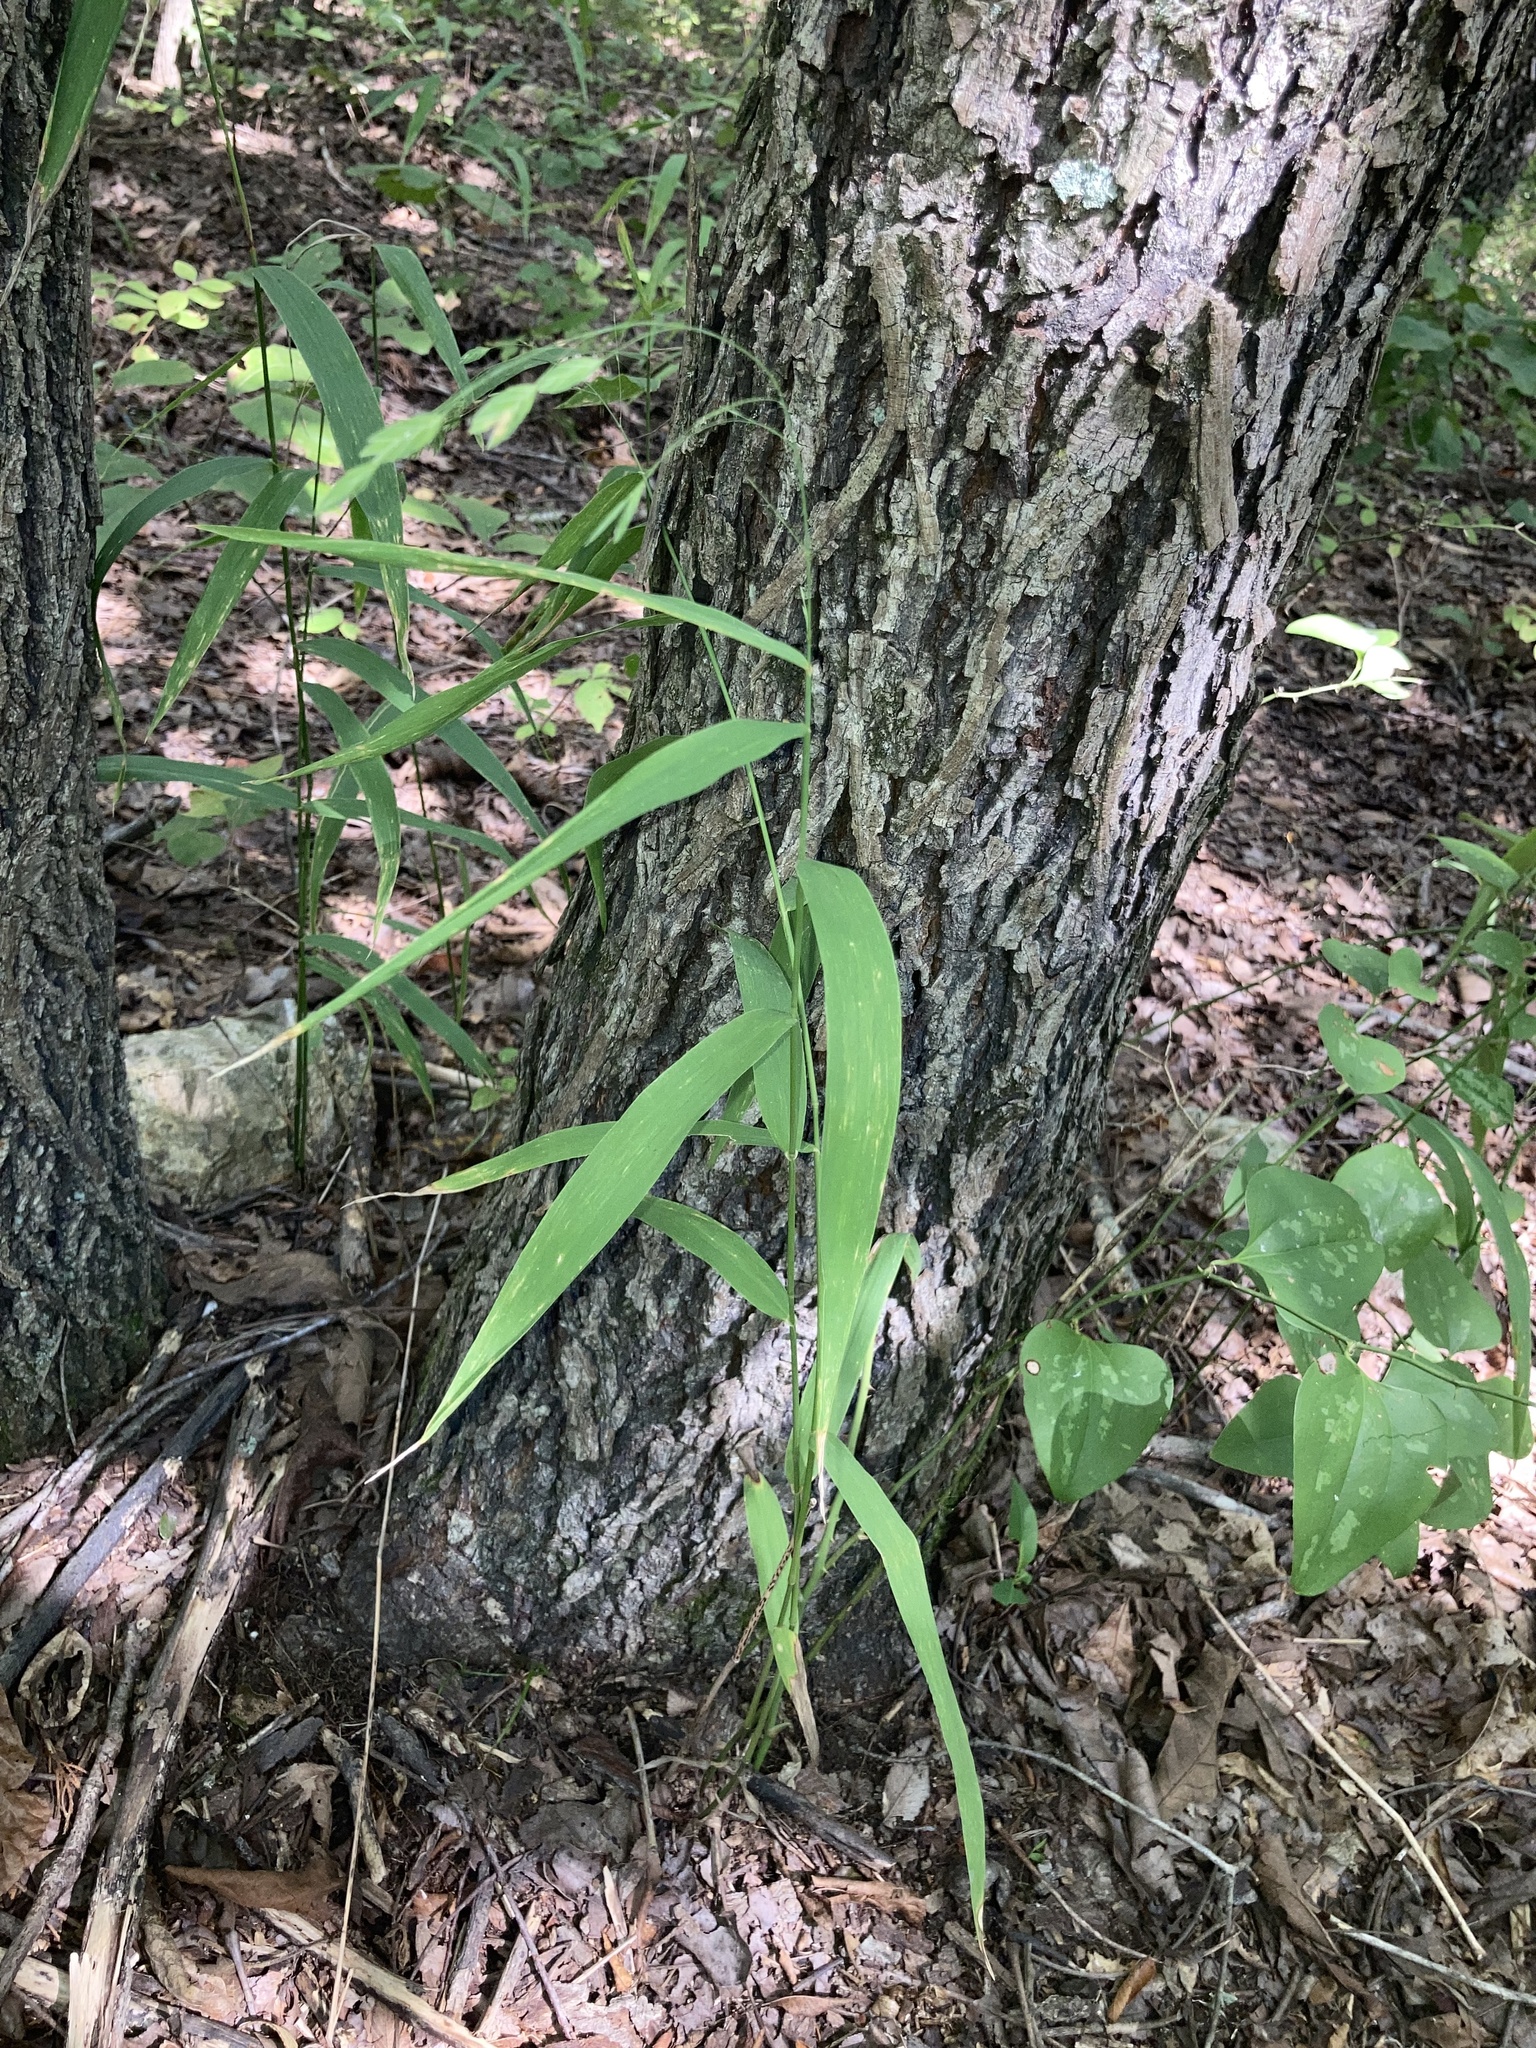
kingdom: Plantae
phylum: Tracheophyta
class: Liliopsida
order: Poales
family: Poaceae
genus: Chasmanthium
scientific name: Chasmanthium latifolium
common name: Broad-leaved chasmanthium
